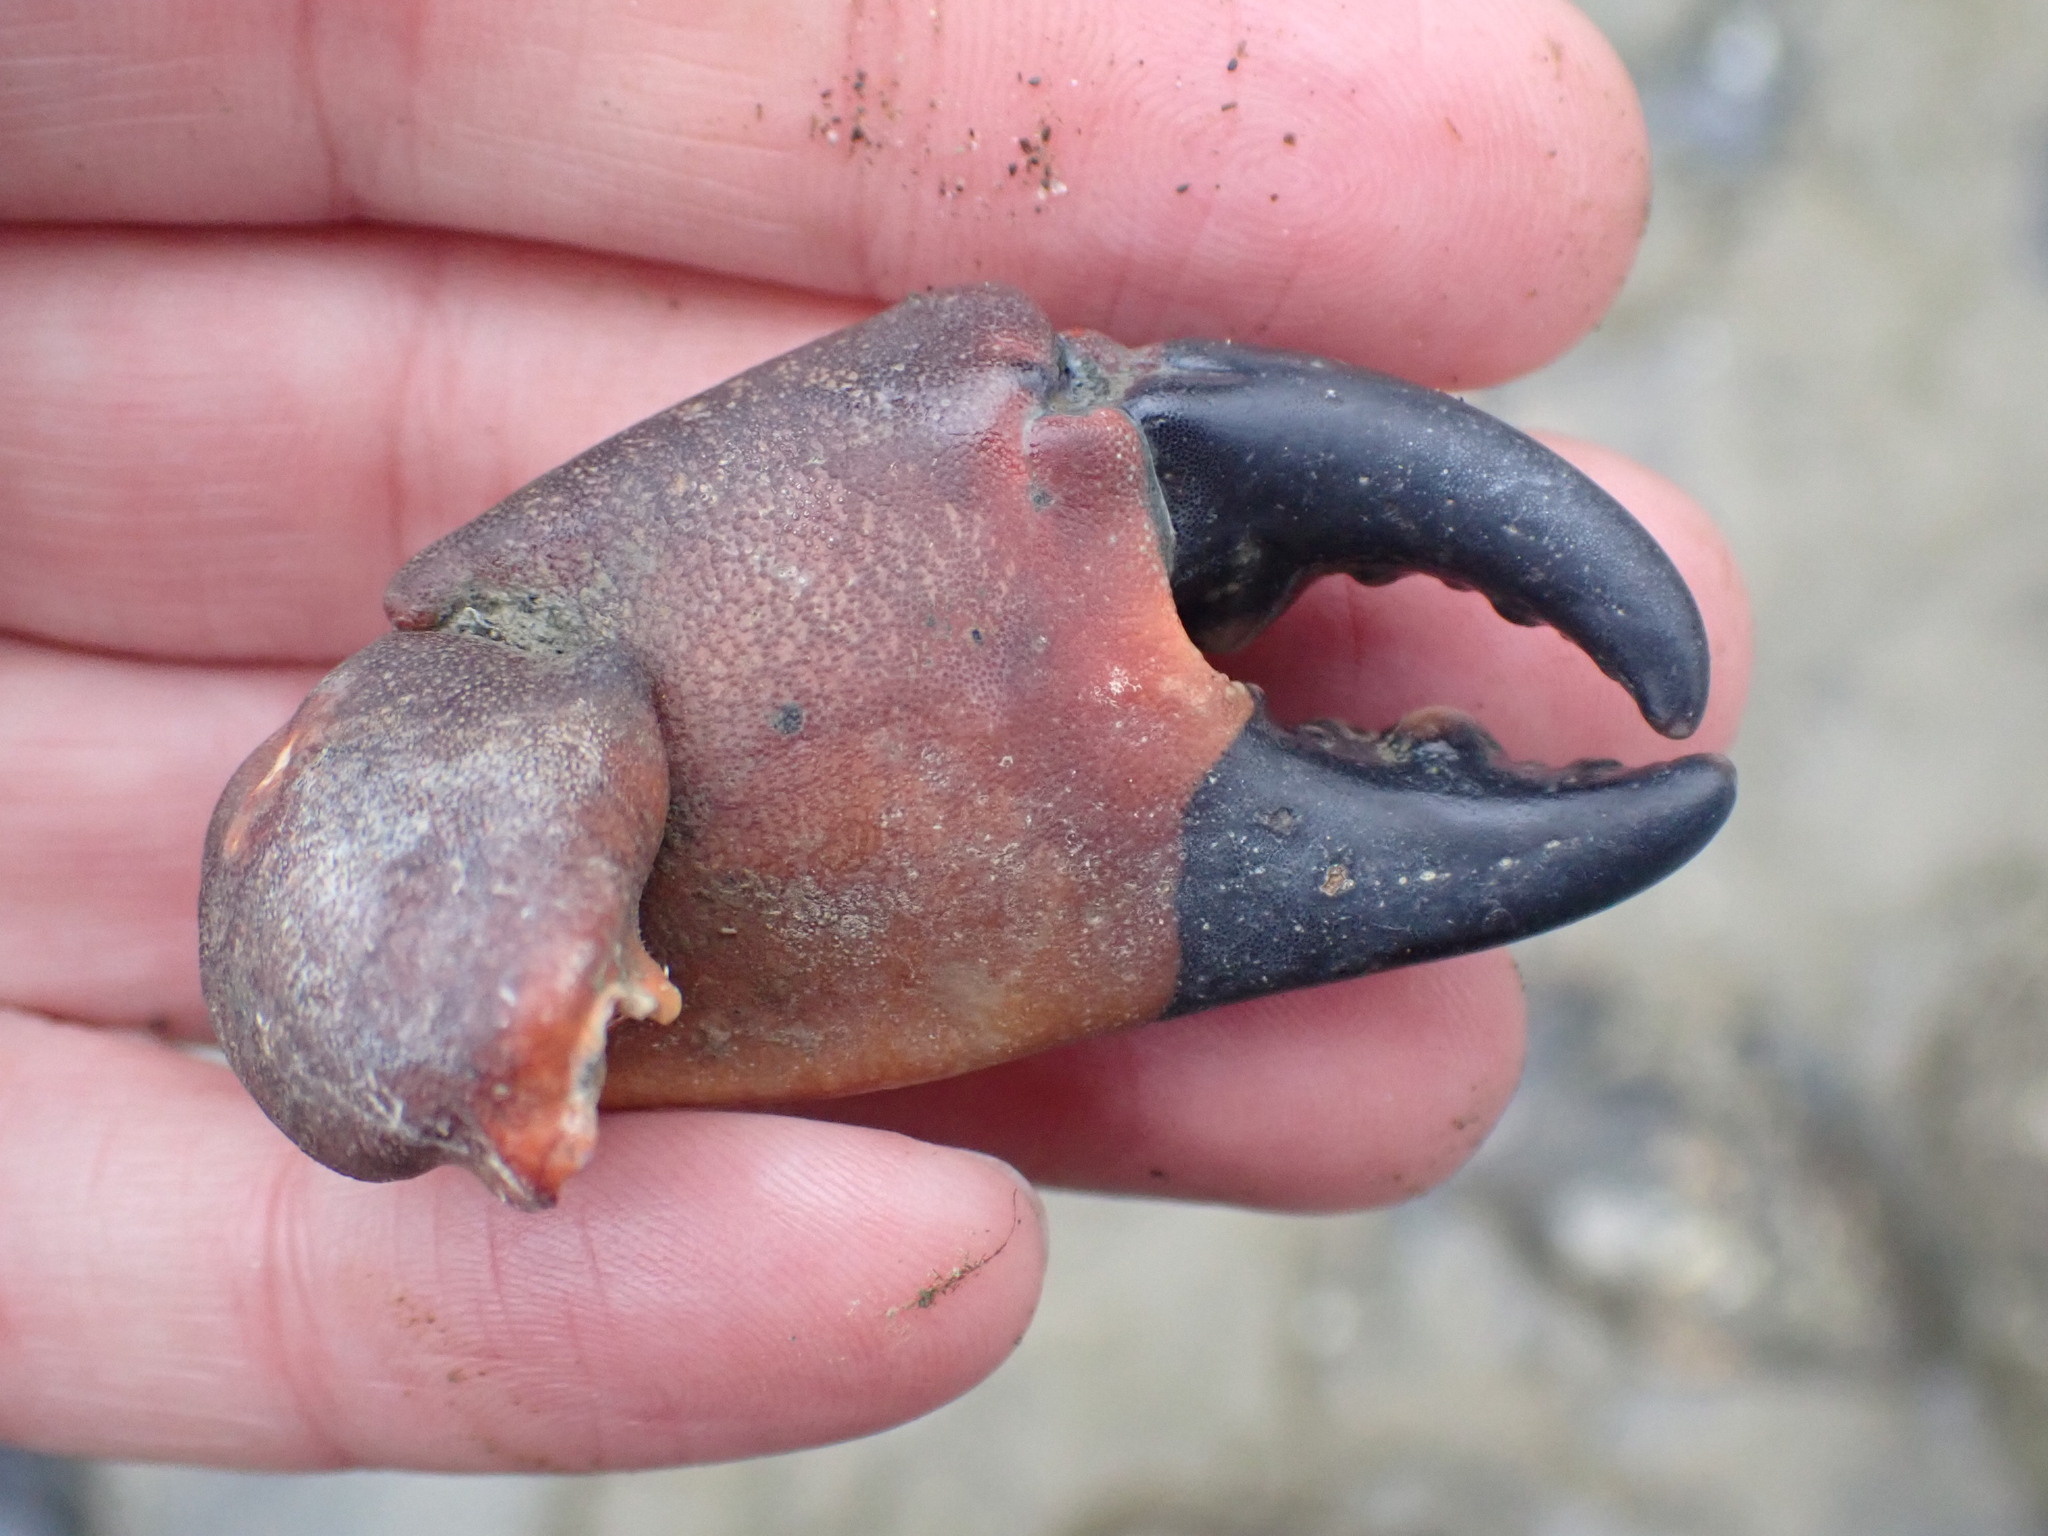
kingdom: Animalia
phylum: Arthropoda
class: Malacostraca
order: Decapoda
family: Oziidae
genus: Ozius
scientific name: Ozius deplanatus
